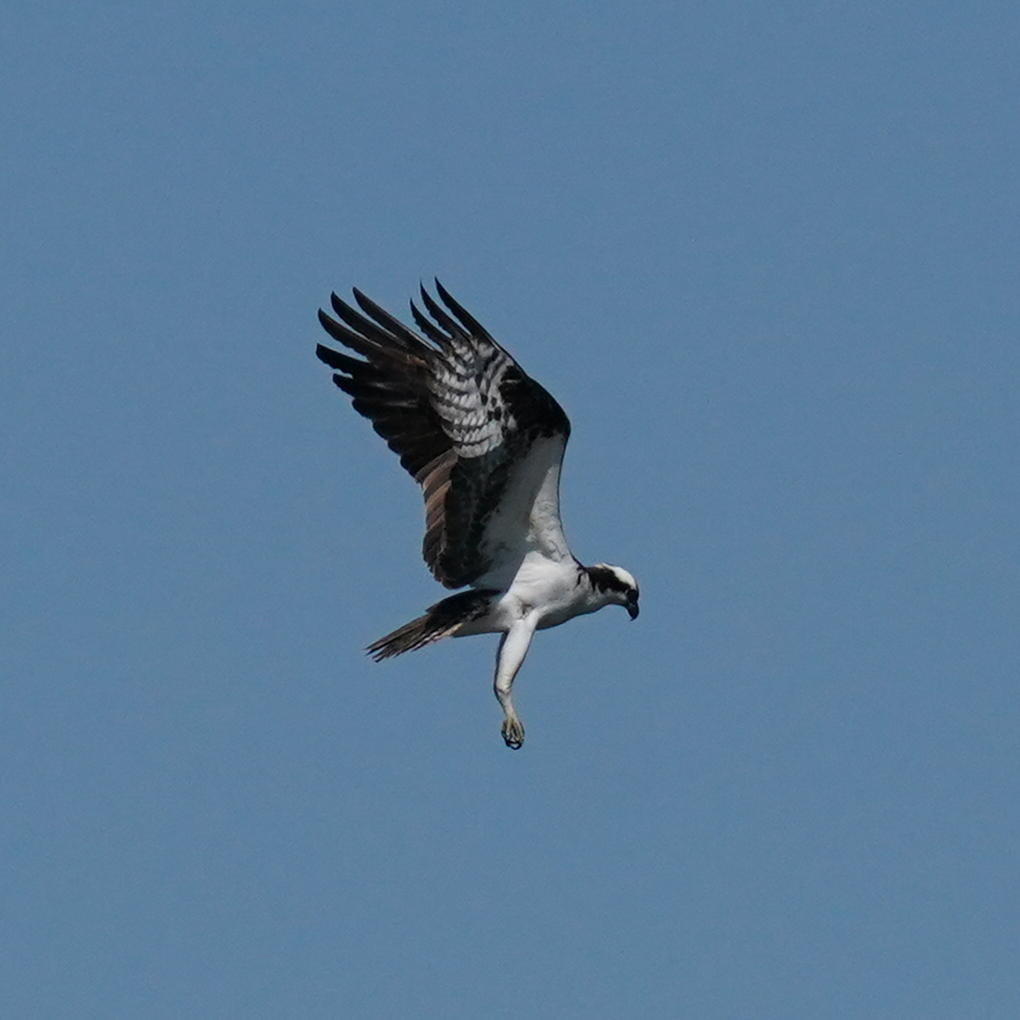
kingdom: Animalia
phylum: Chordata
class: Aves
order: Accipitriformes
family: Pandionidae
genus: Pandion
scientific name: Pandion haliaetus
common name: Osprey
